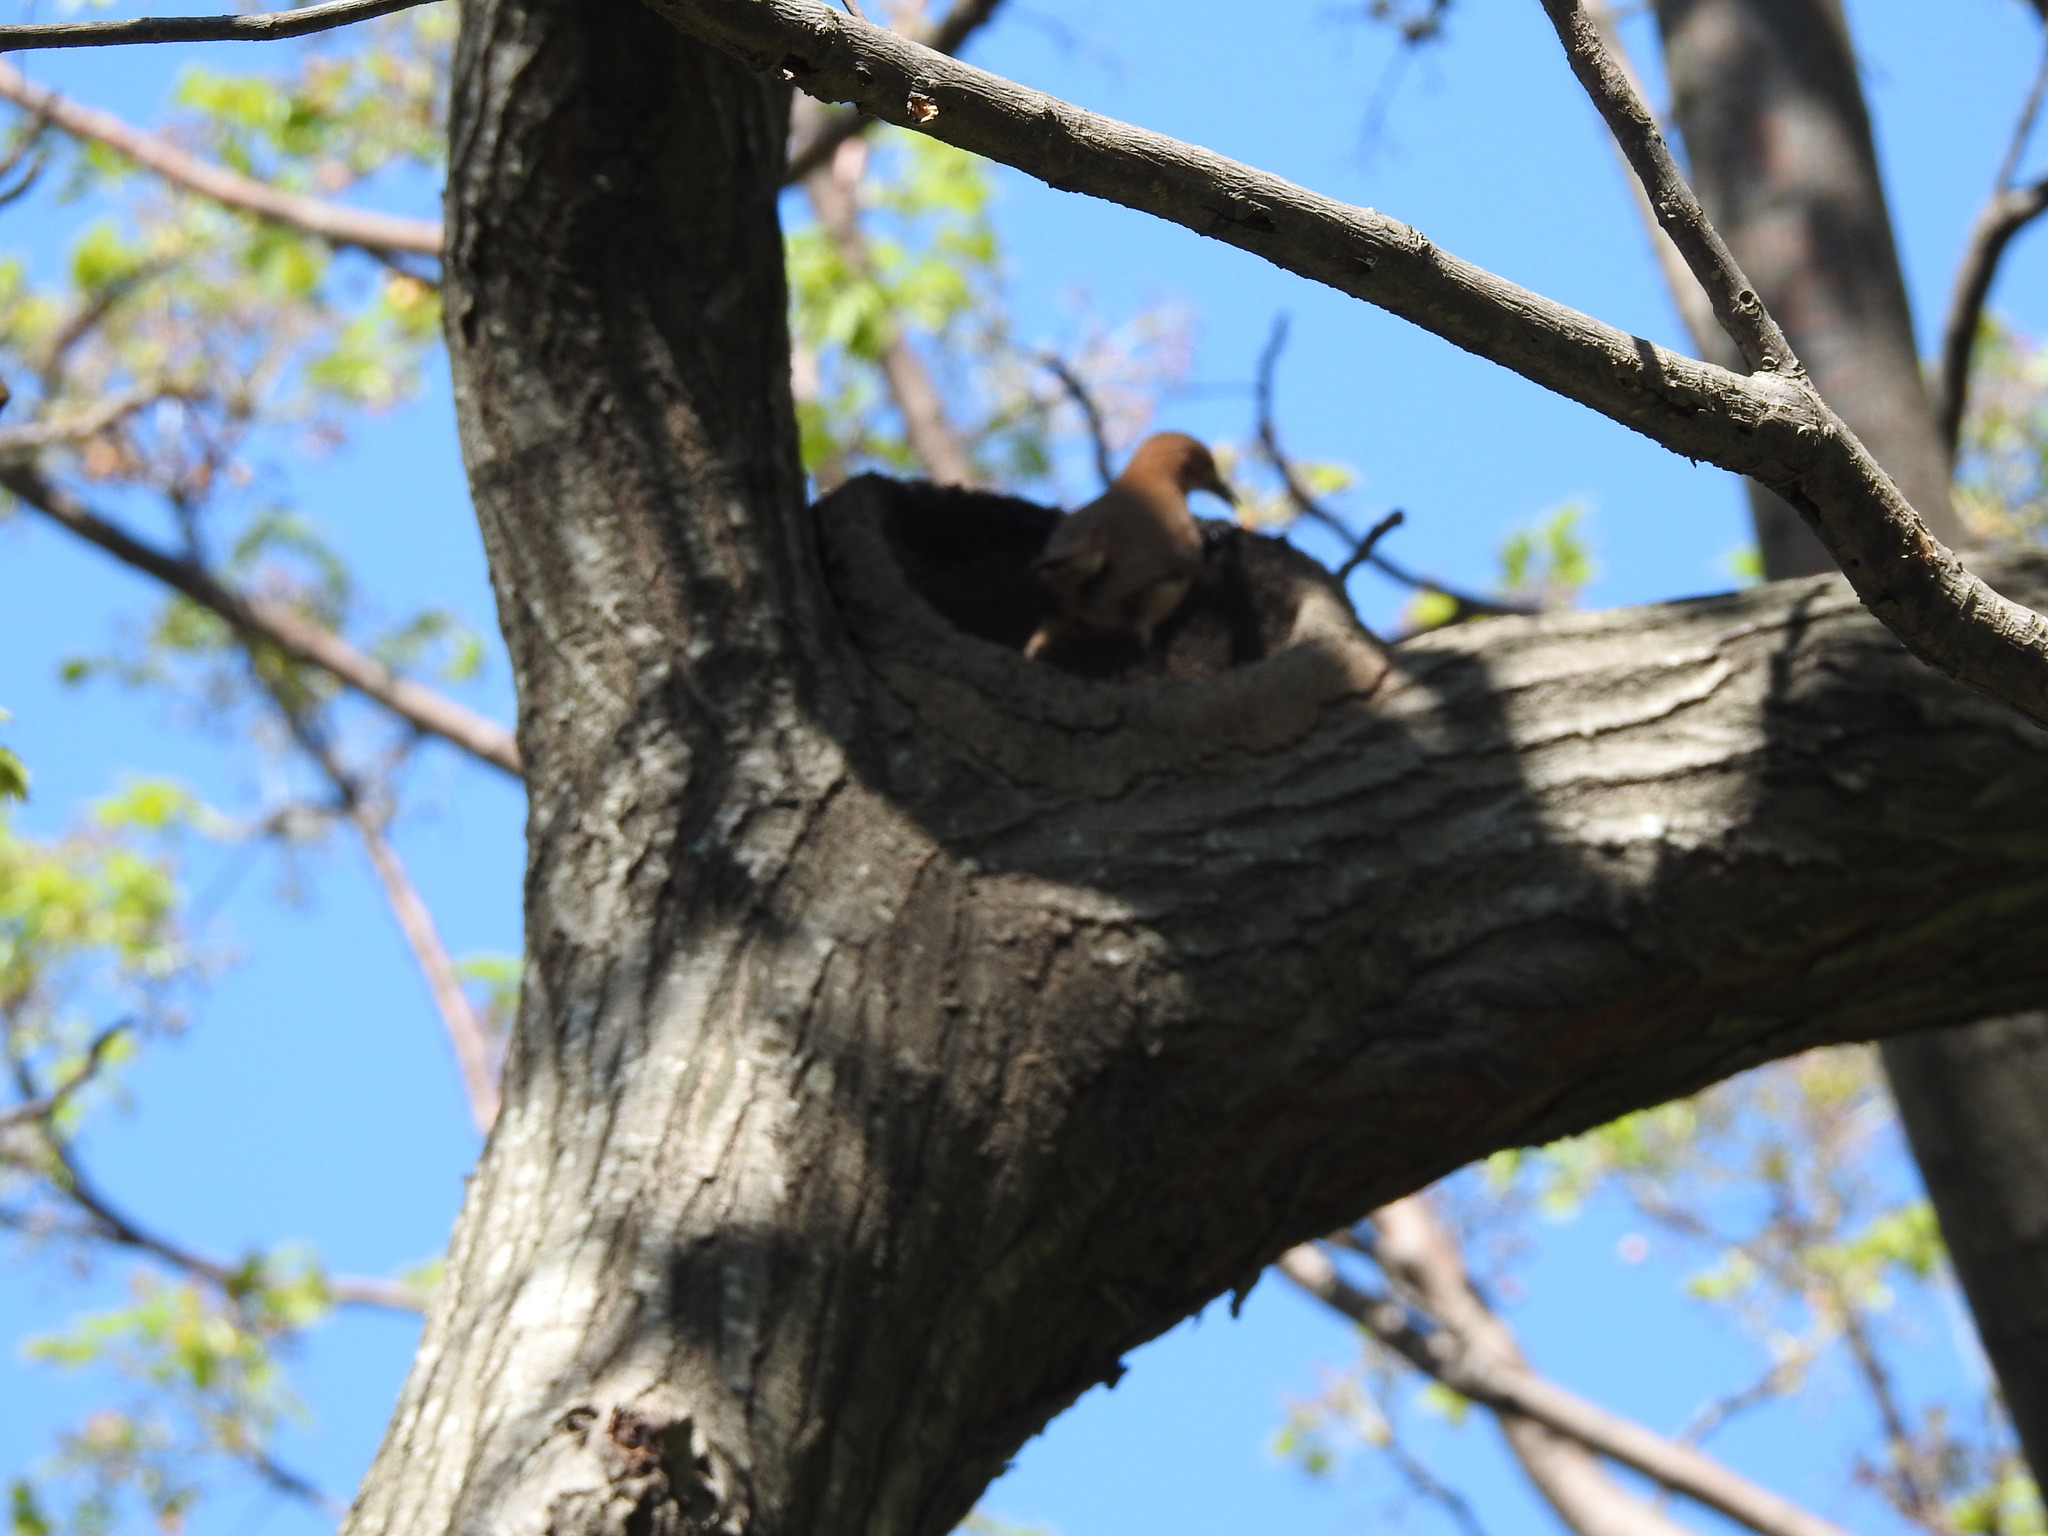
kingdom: Animalia
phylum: Chordata
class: Aves
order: Passeriformes
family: Furnariidae
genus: Furnarius
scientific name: Furnarius rufus
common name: Rufous hornero
